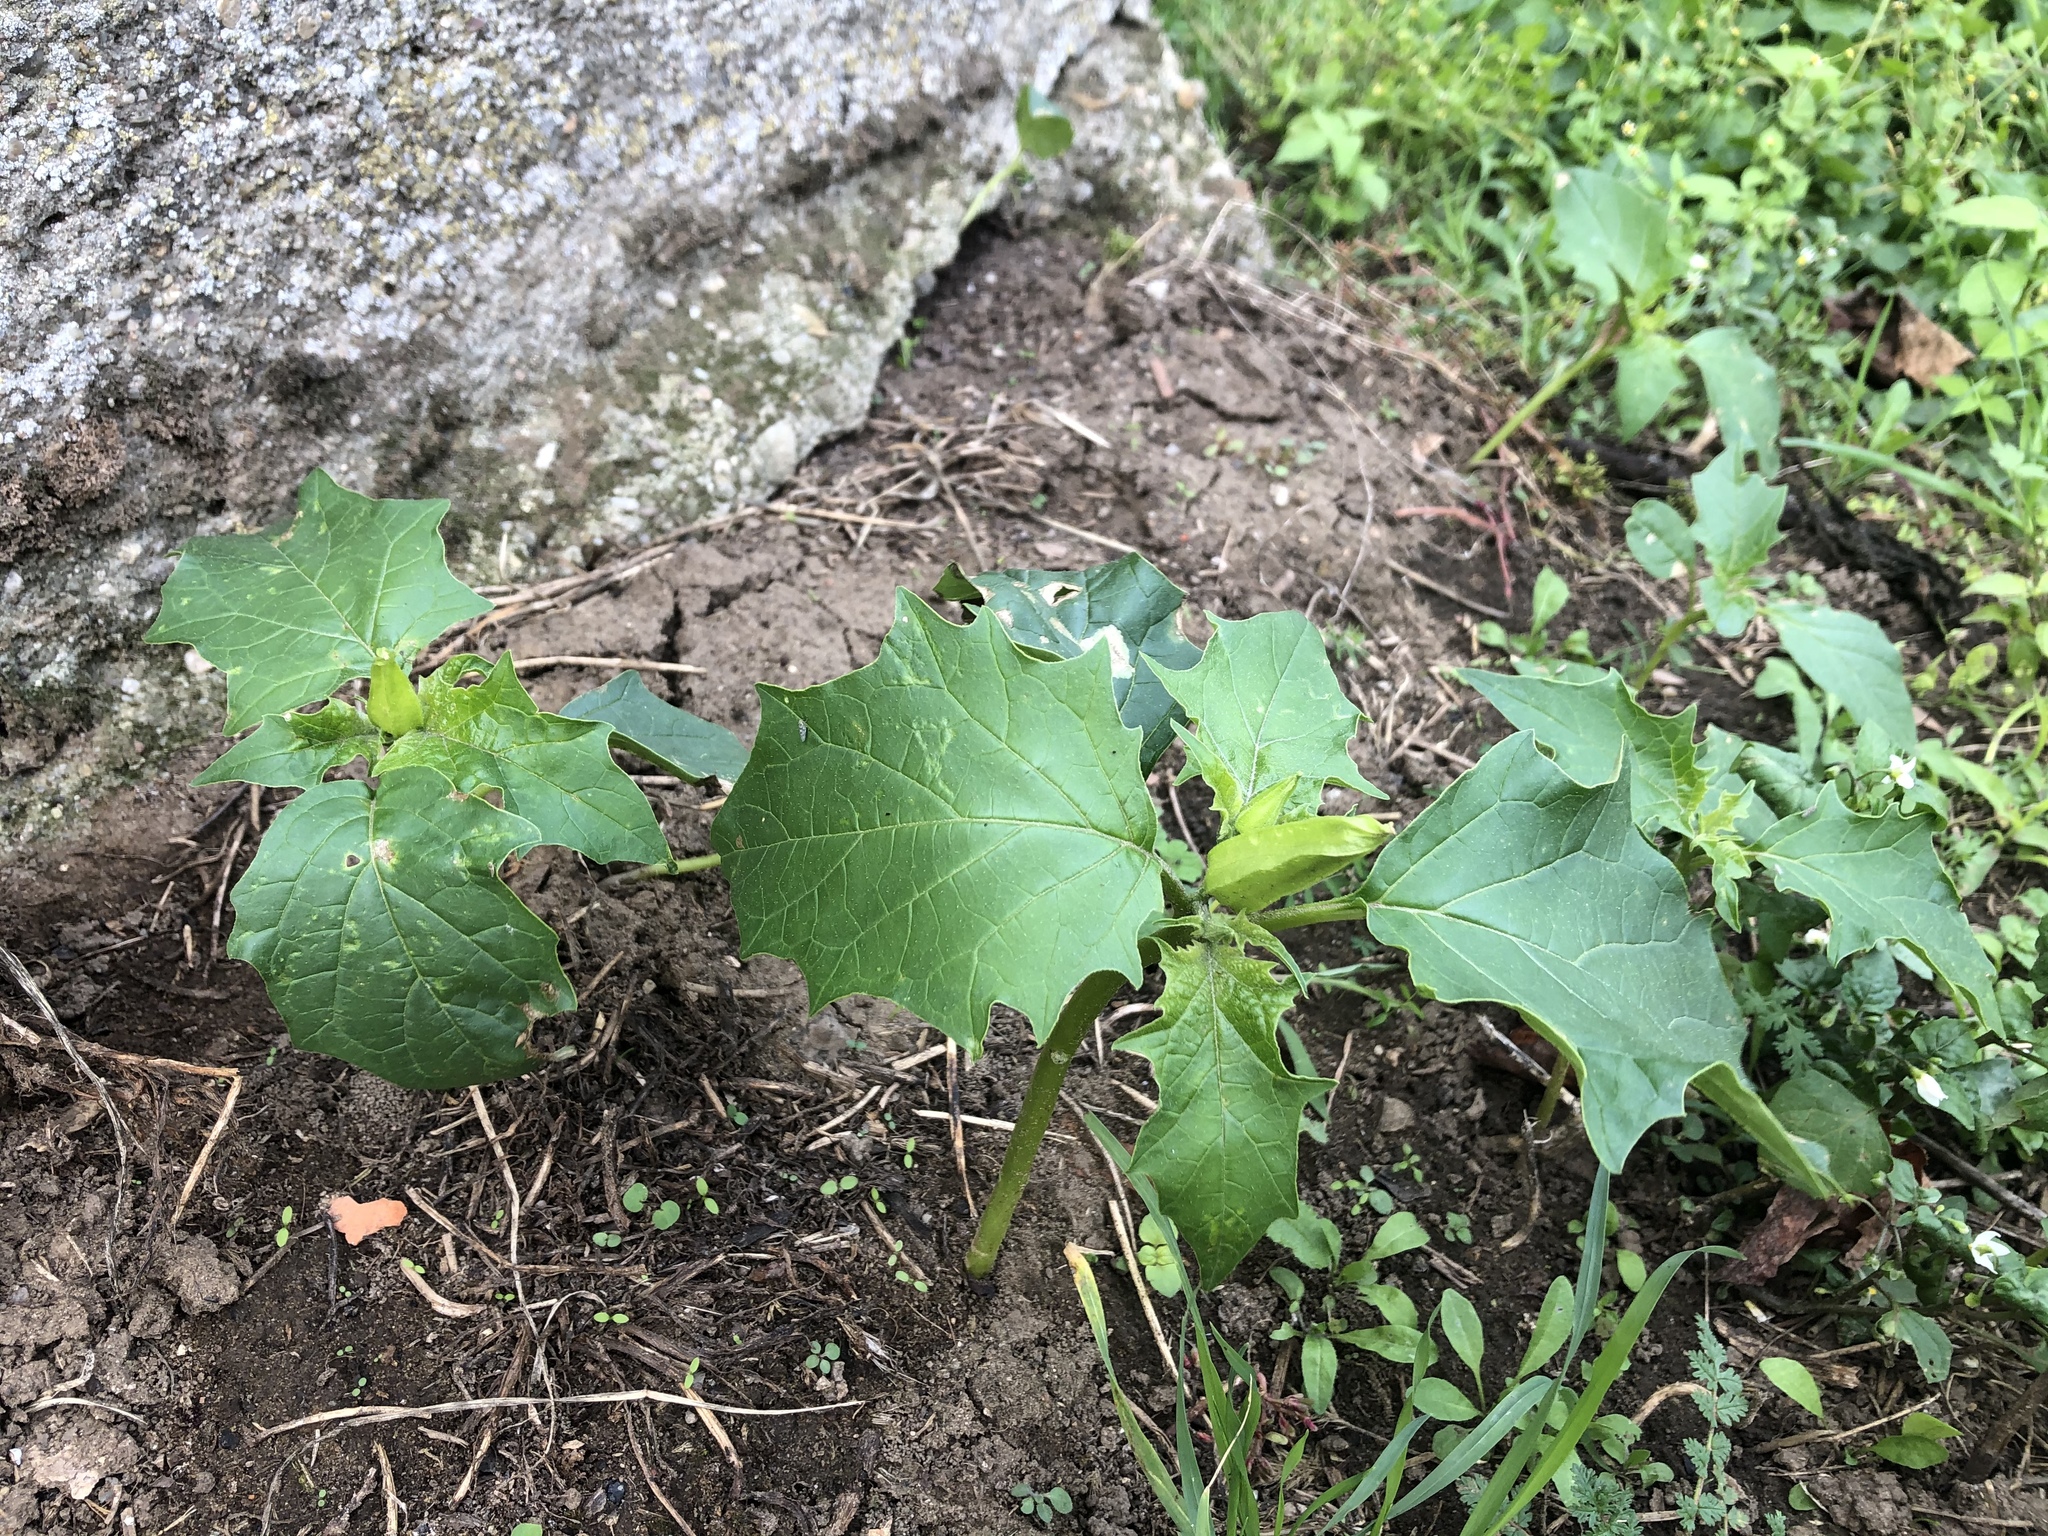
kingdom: Plantae
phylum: Tracheophyta
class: Magnoliopsida
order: Solanales
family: Solanaceae
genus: Datura
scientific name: Datura stramonium
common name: Thorn-apple
